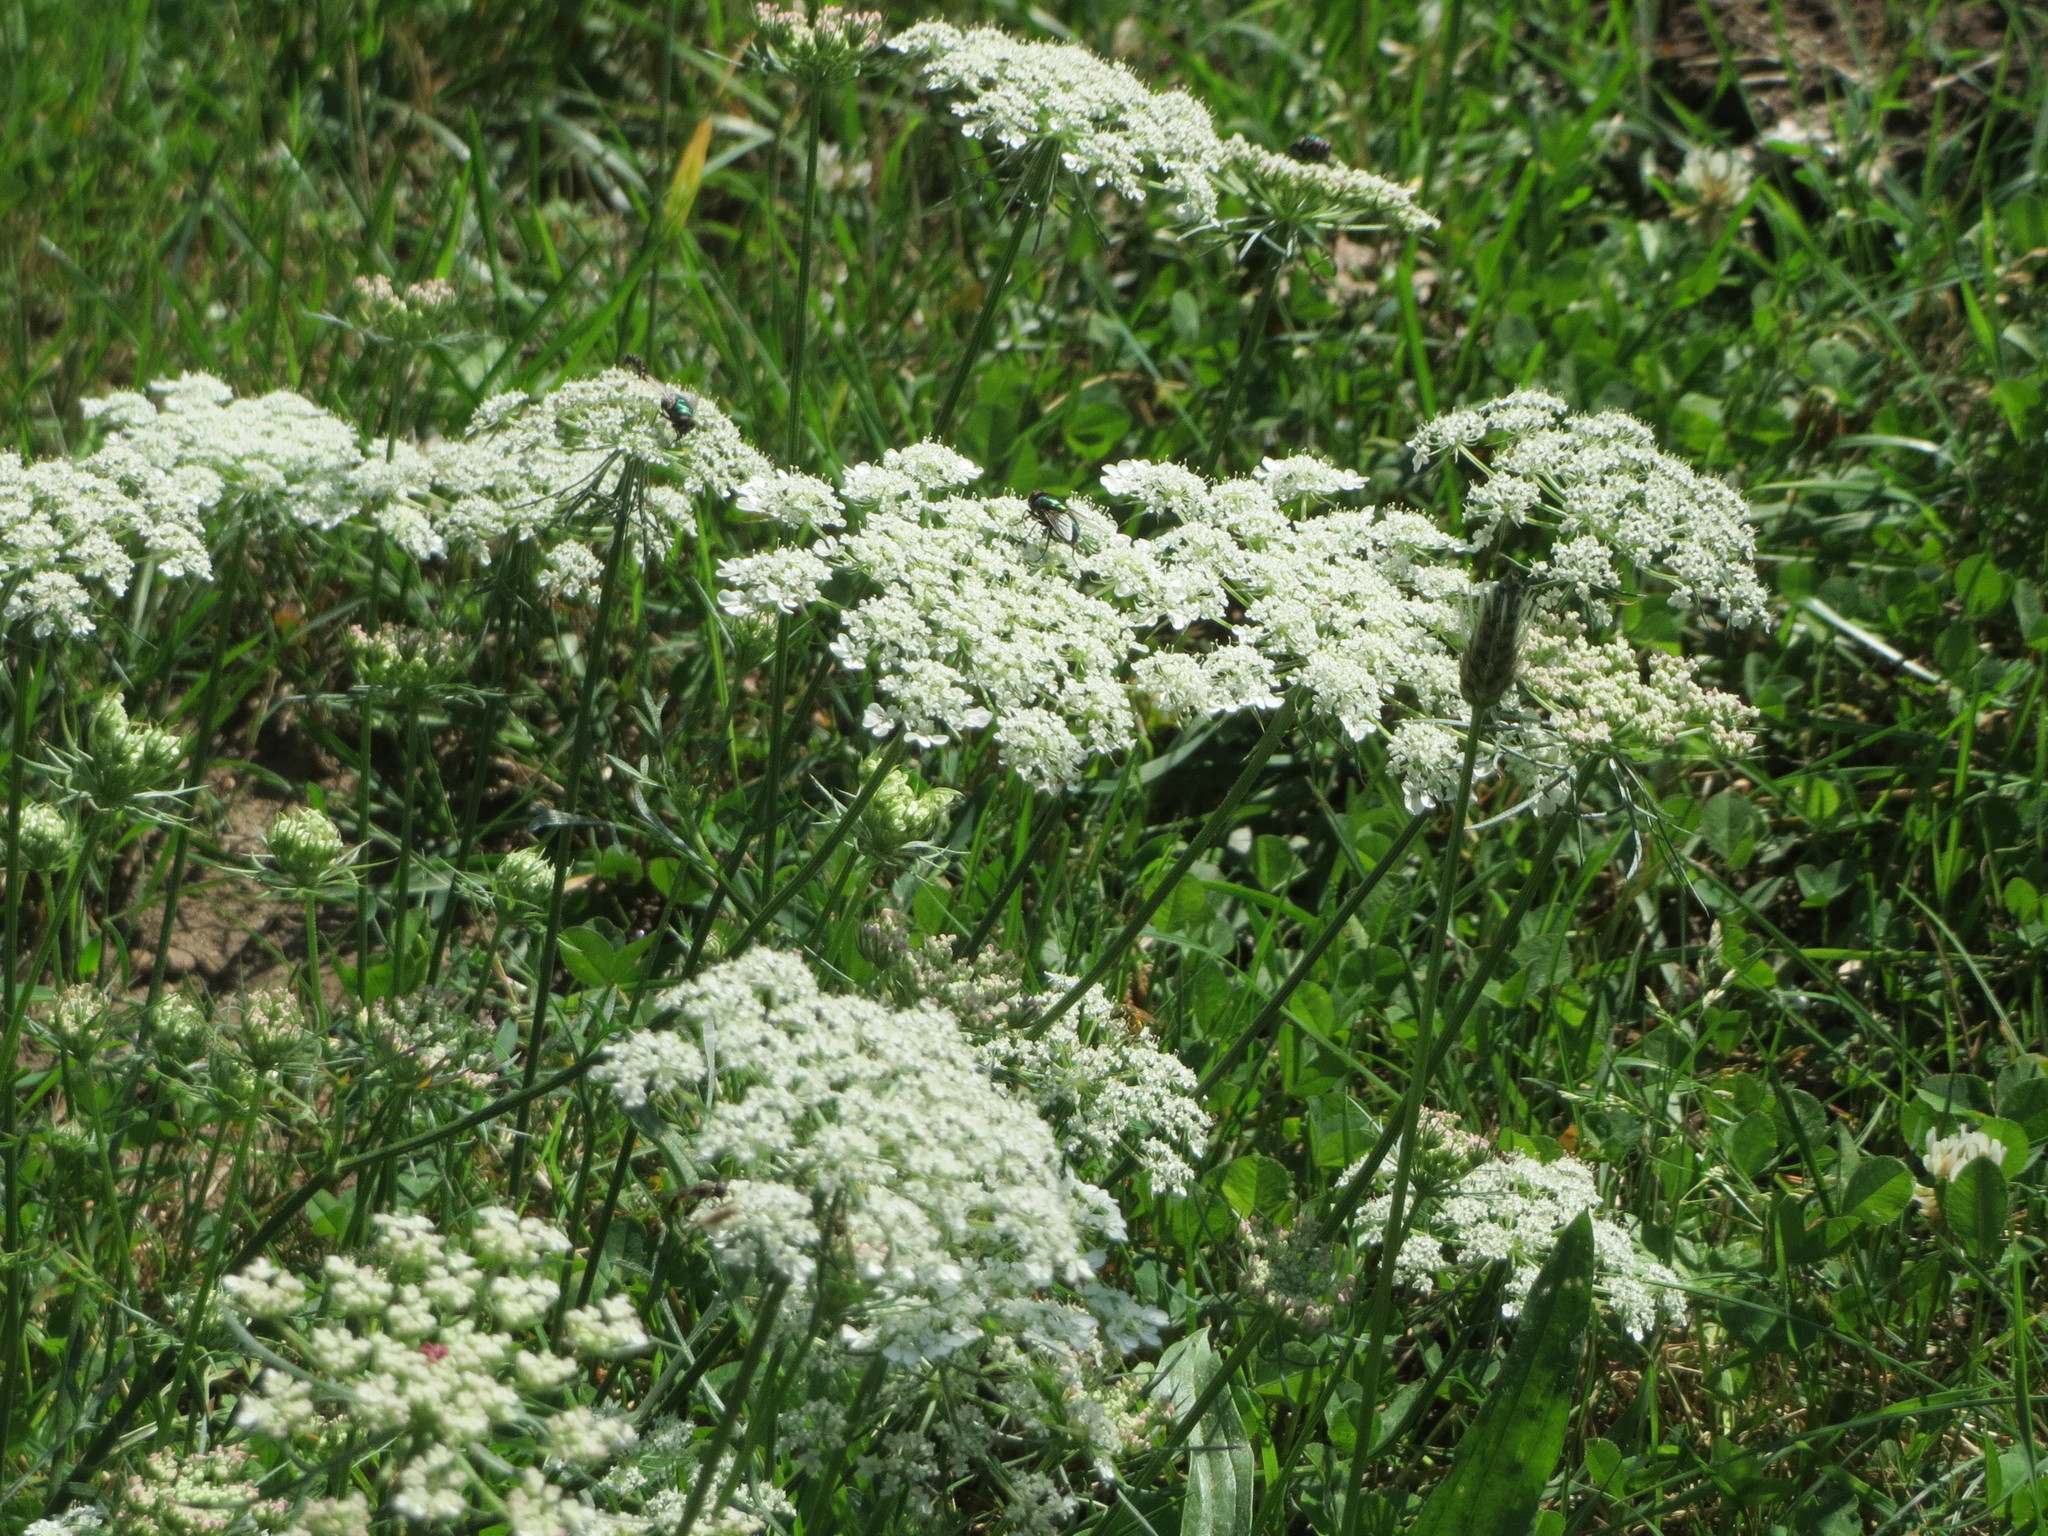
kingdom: Plantae
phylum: Tracheophyta
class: Magnoliopsida
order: Apiales
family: Apiaceae
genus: Daucus
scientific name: Daucus carota
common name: Wild carrot
